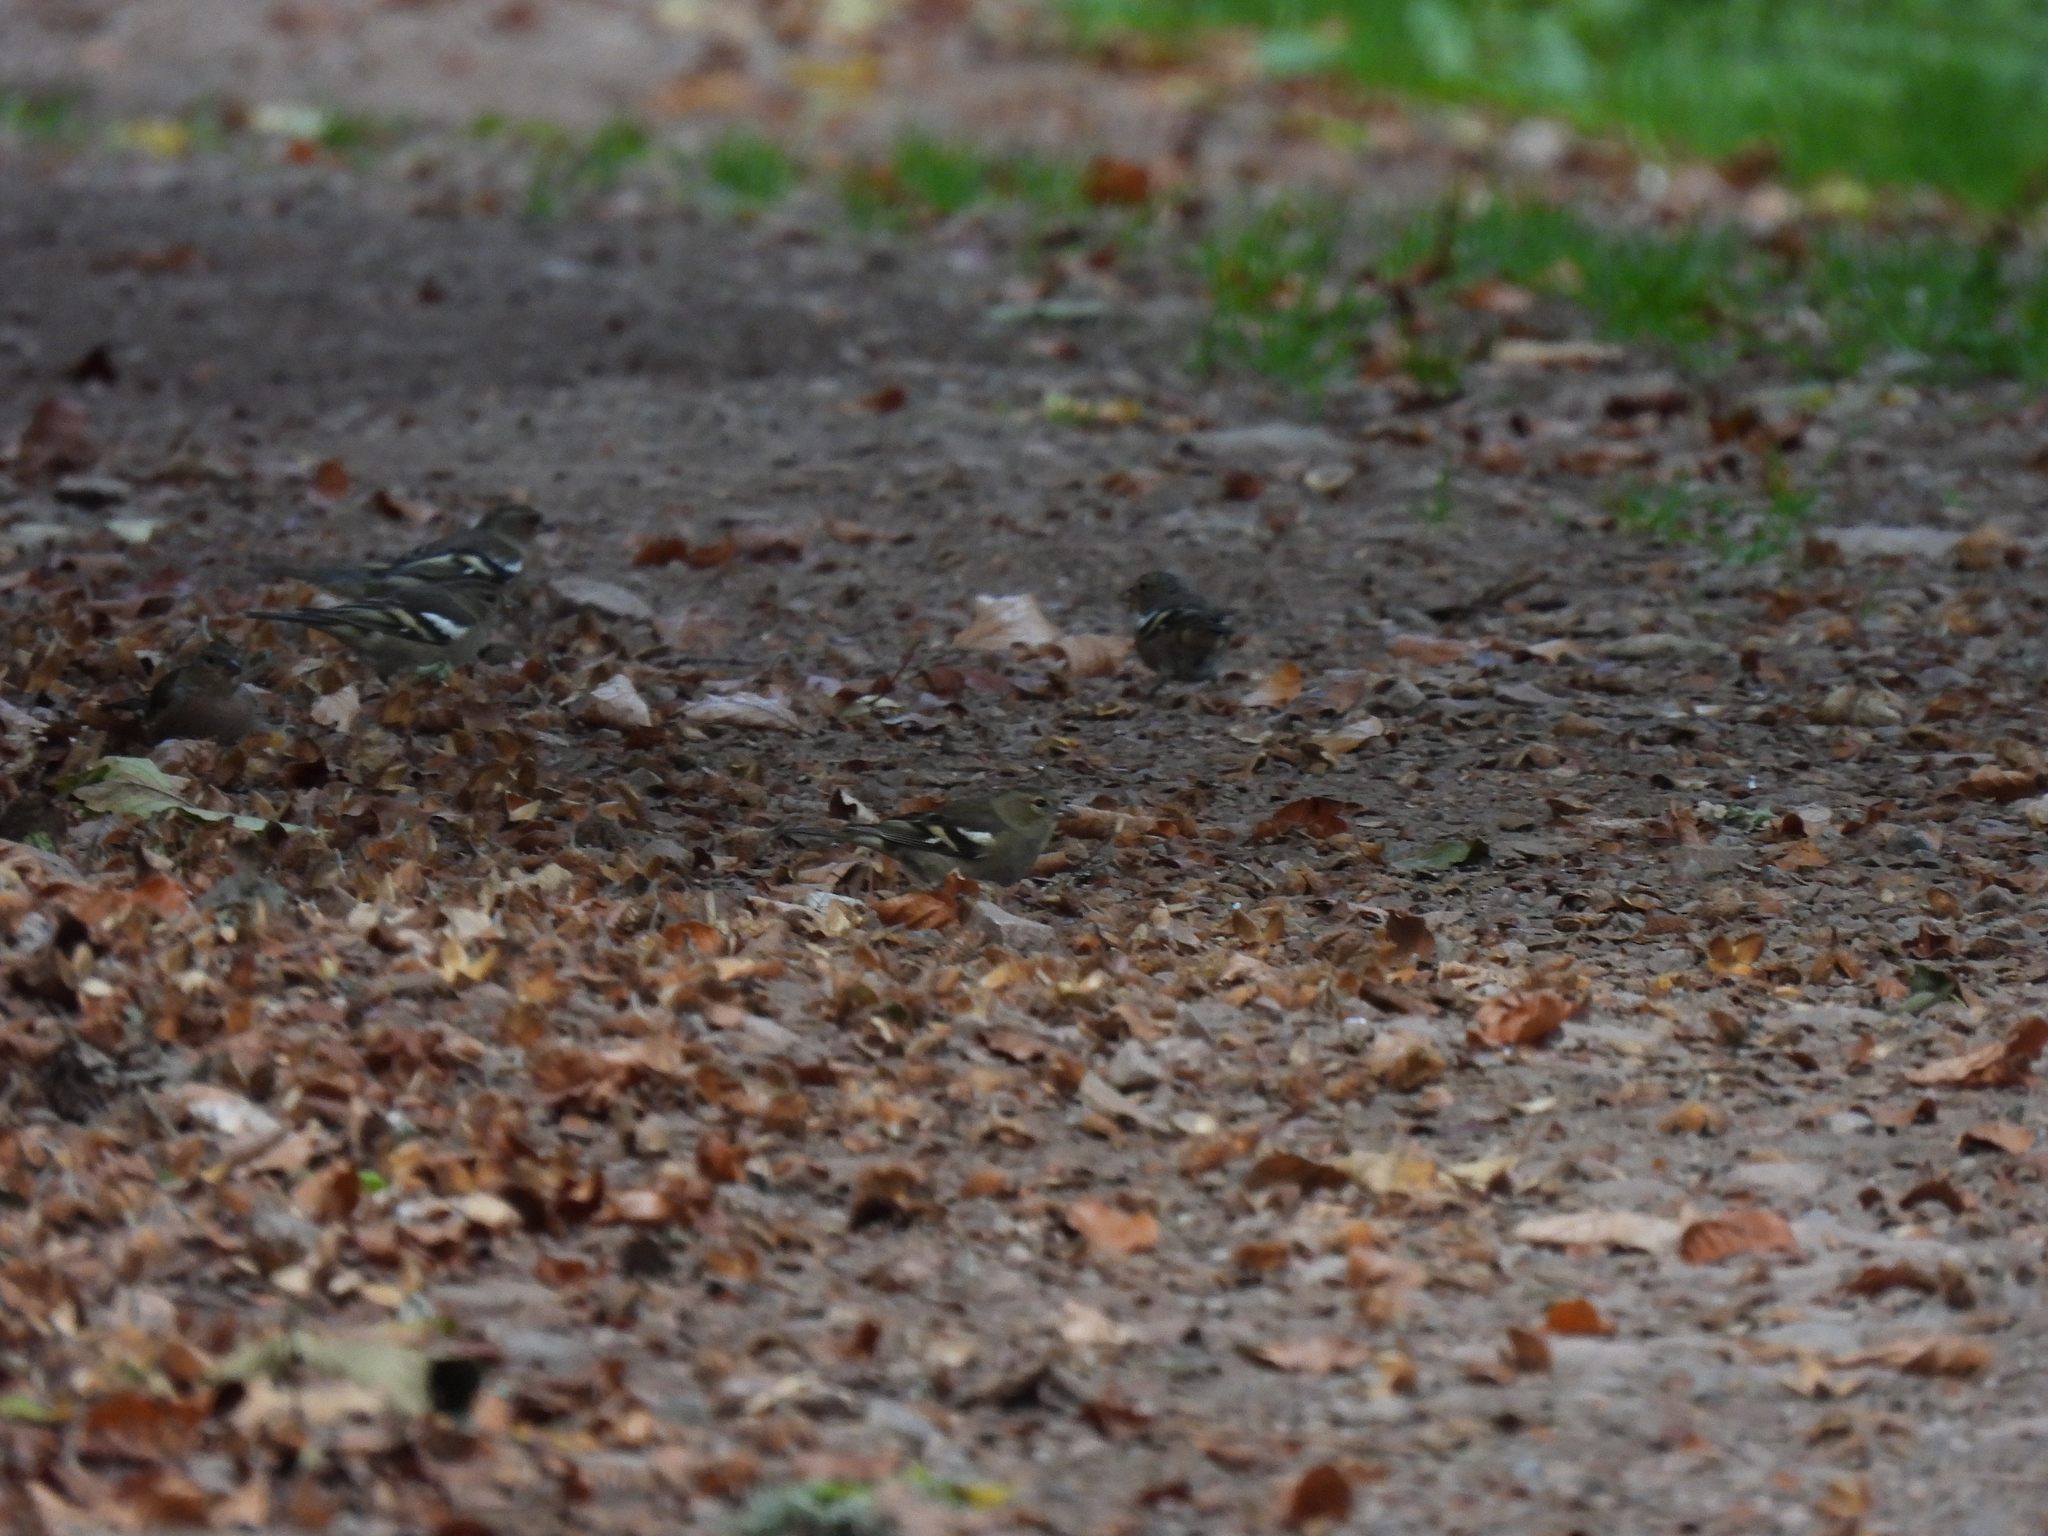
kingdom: Animalia
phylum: Chordata
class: Aves
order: Passeriformes
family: Fringillidae
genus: Fringilla
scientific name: Fringilla coelebs
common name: Common chaffinch
